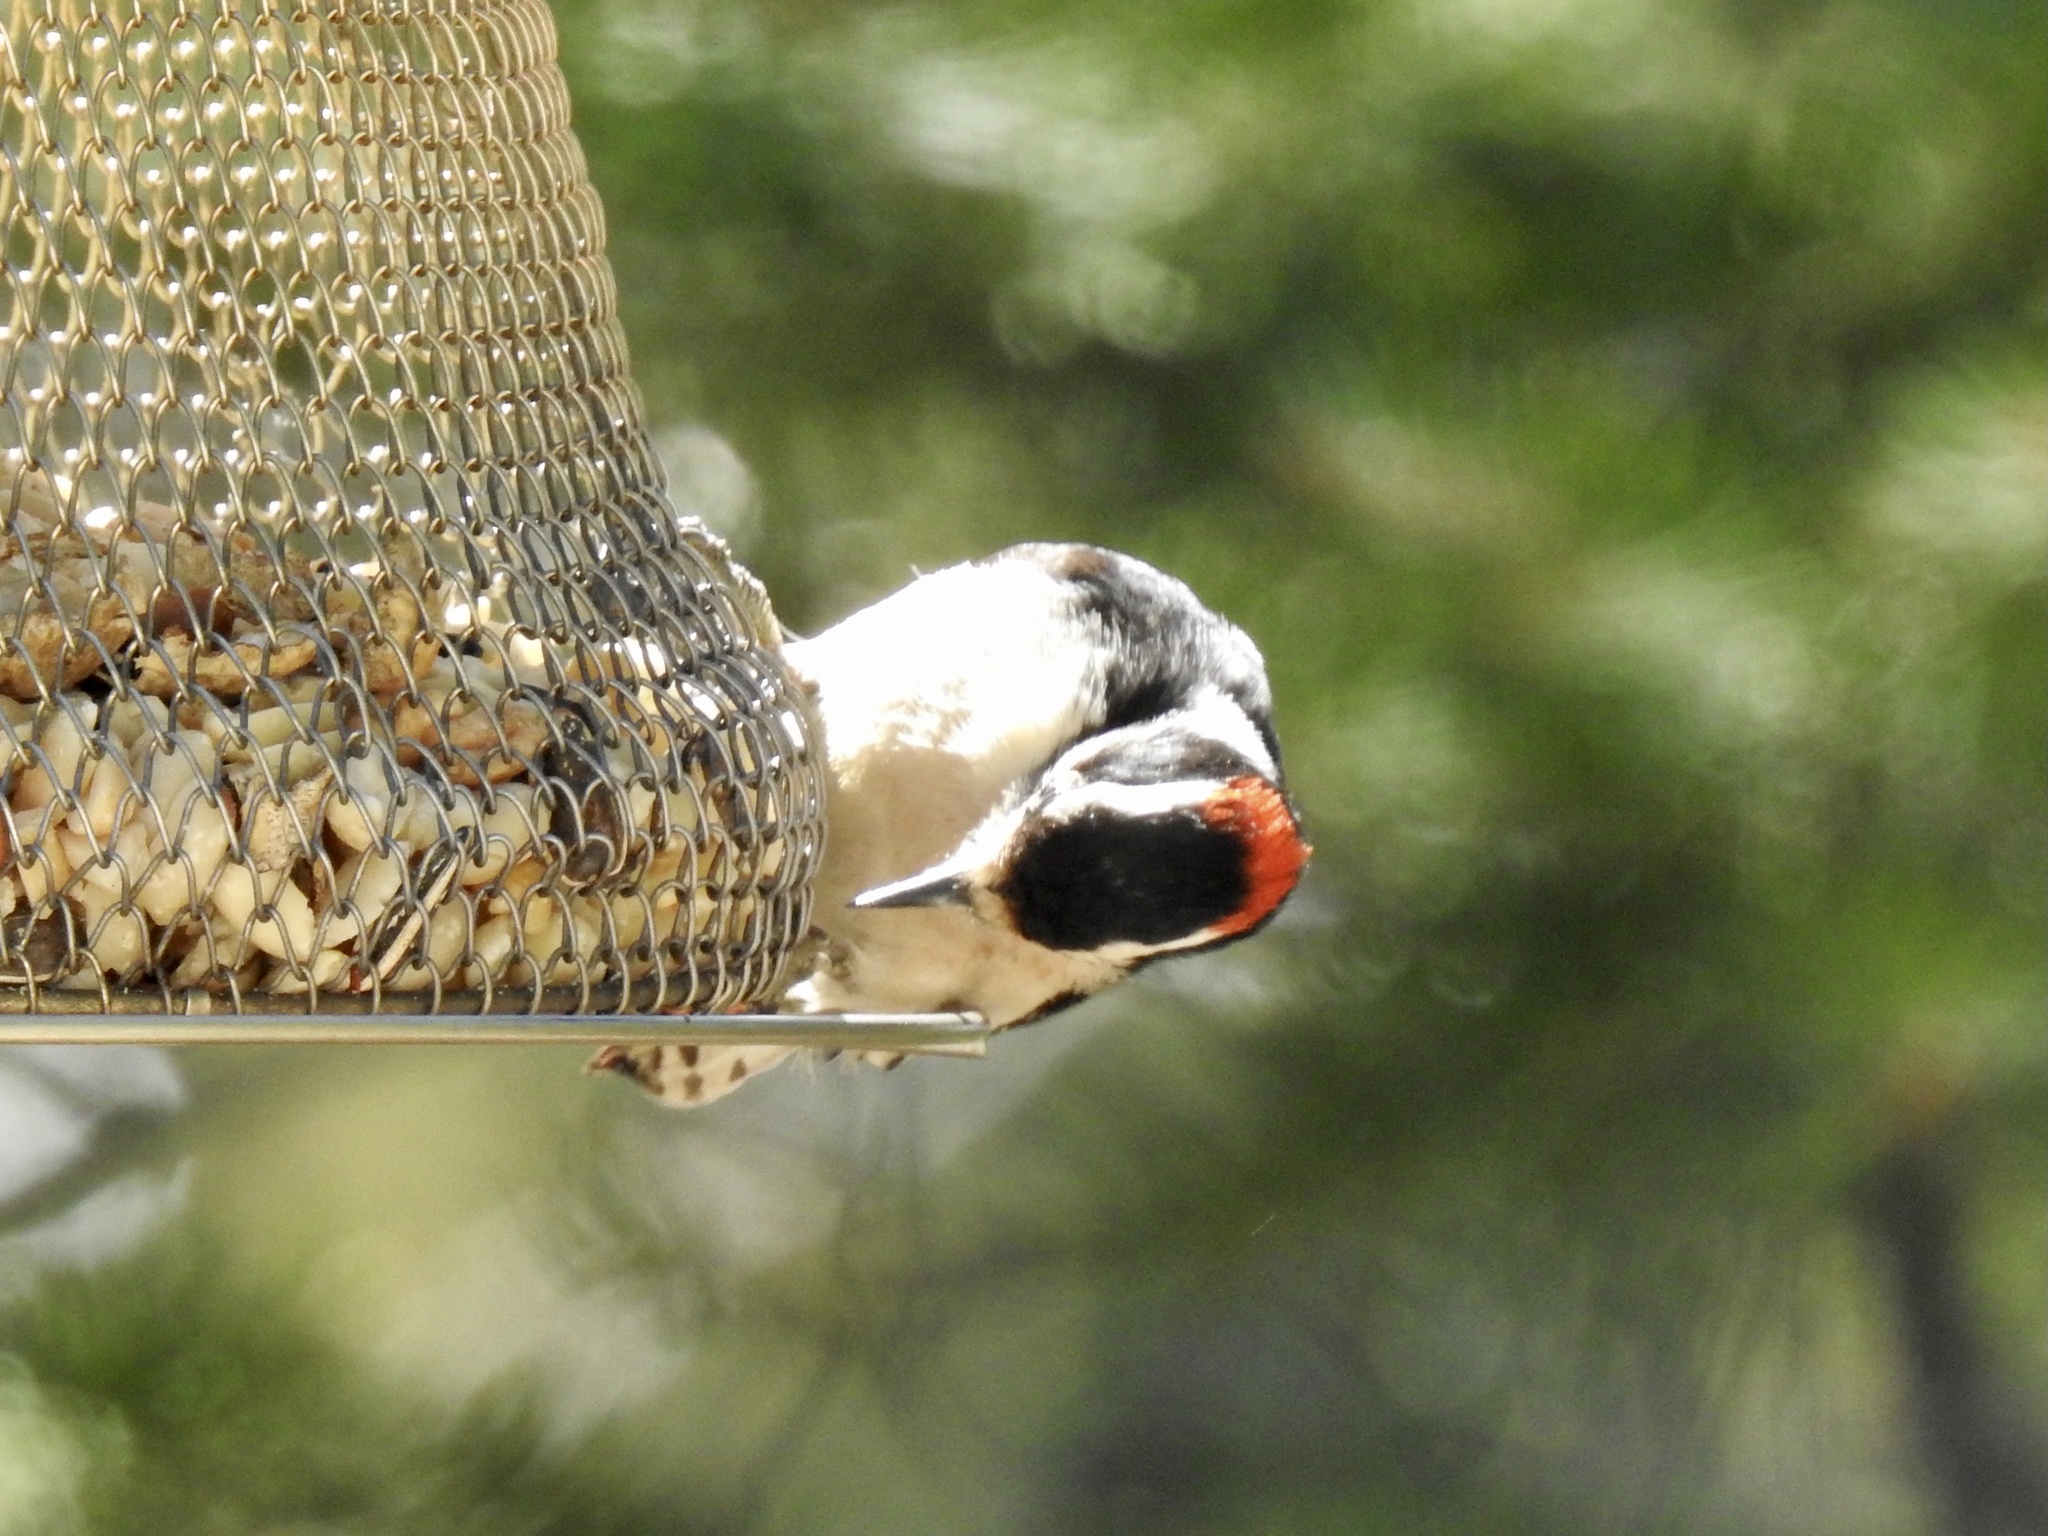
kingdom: Animalia
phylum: Chordata
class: Aves
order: Piciformes
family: Picidae
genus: Dryobates
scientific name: Dryobates pubescens
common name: Downy woodpecker
